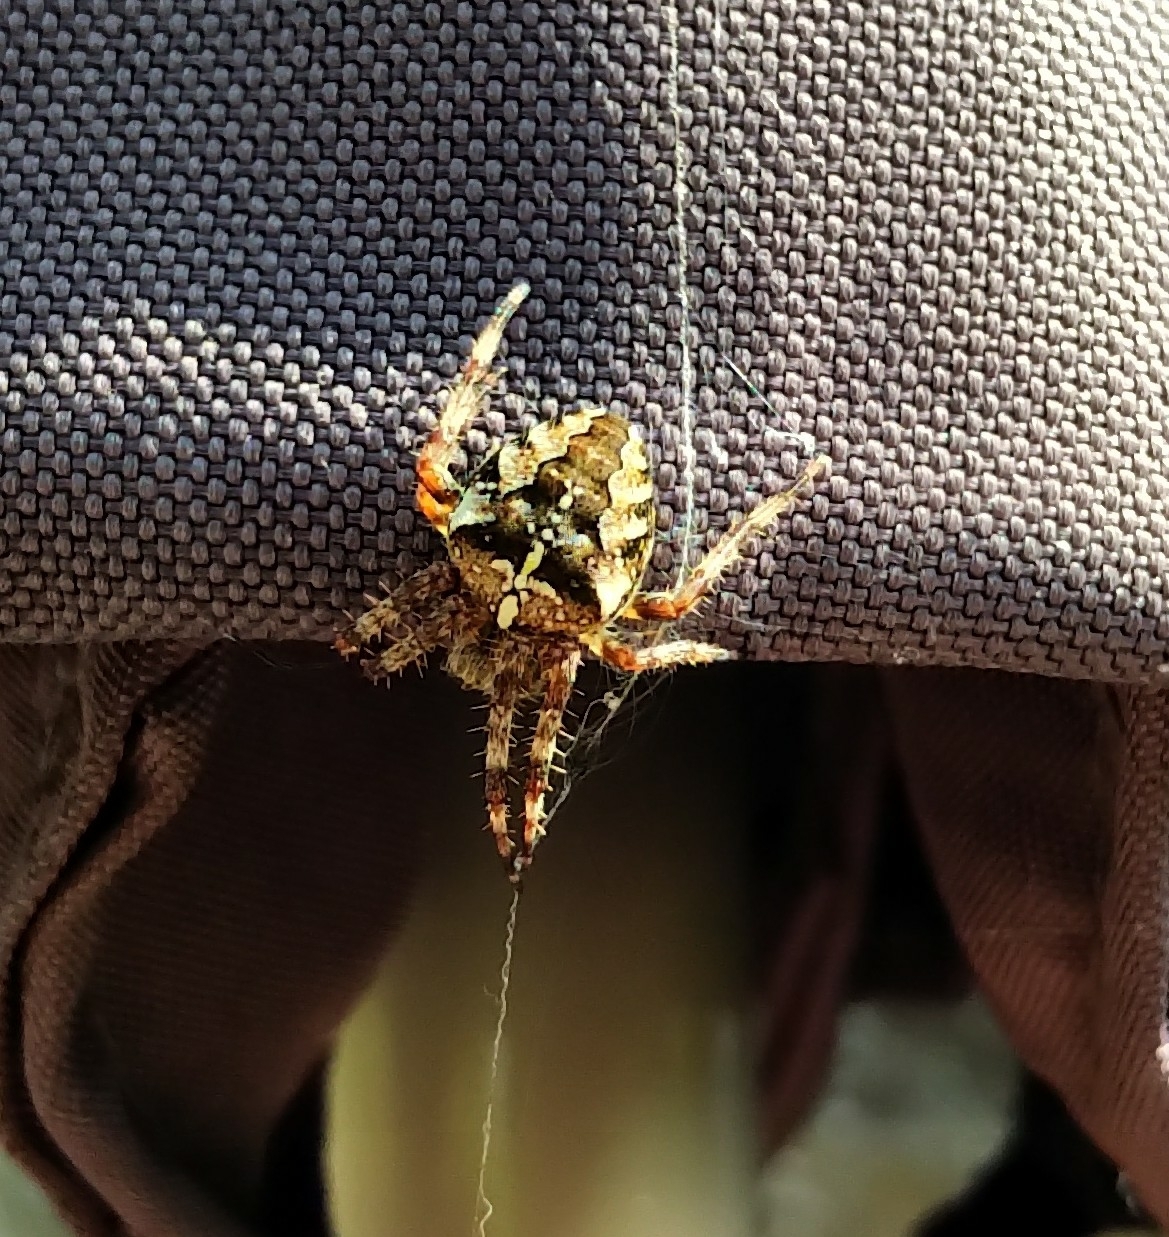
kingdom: Animalia
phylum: Arthropoda
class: Arachnida
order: Araneae
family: Araneidae
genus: Araneus
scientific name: Araneus diadematus
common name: Cross orbweaver
